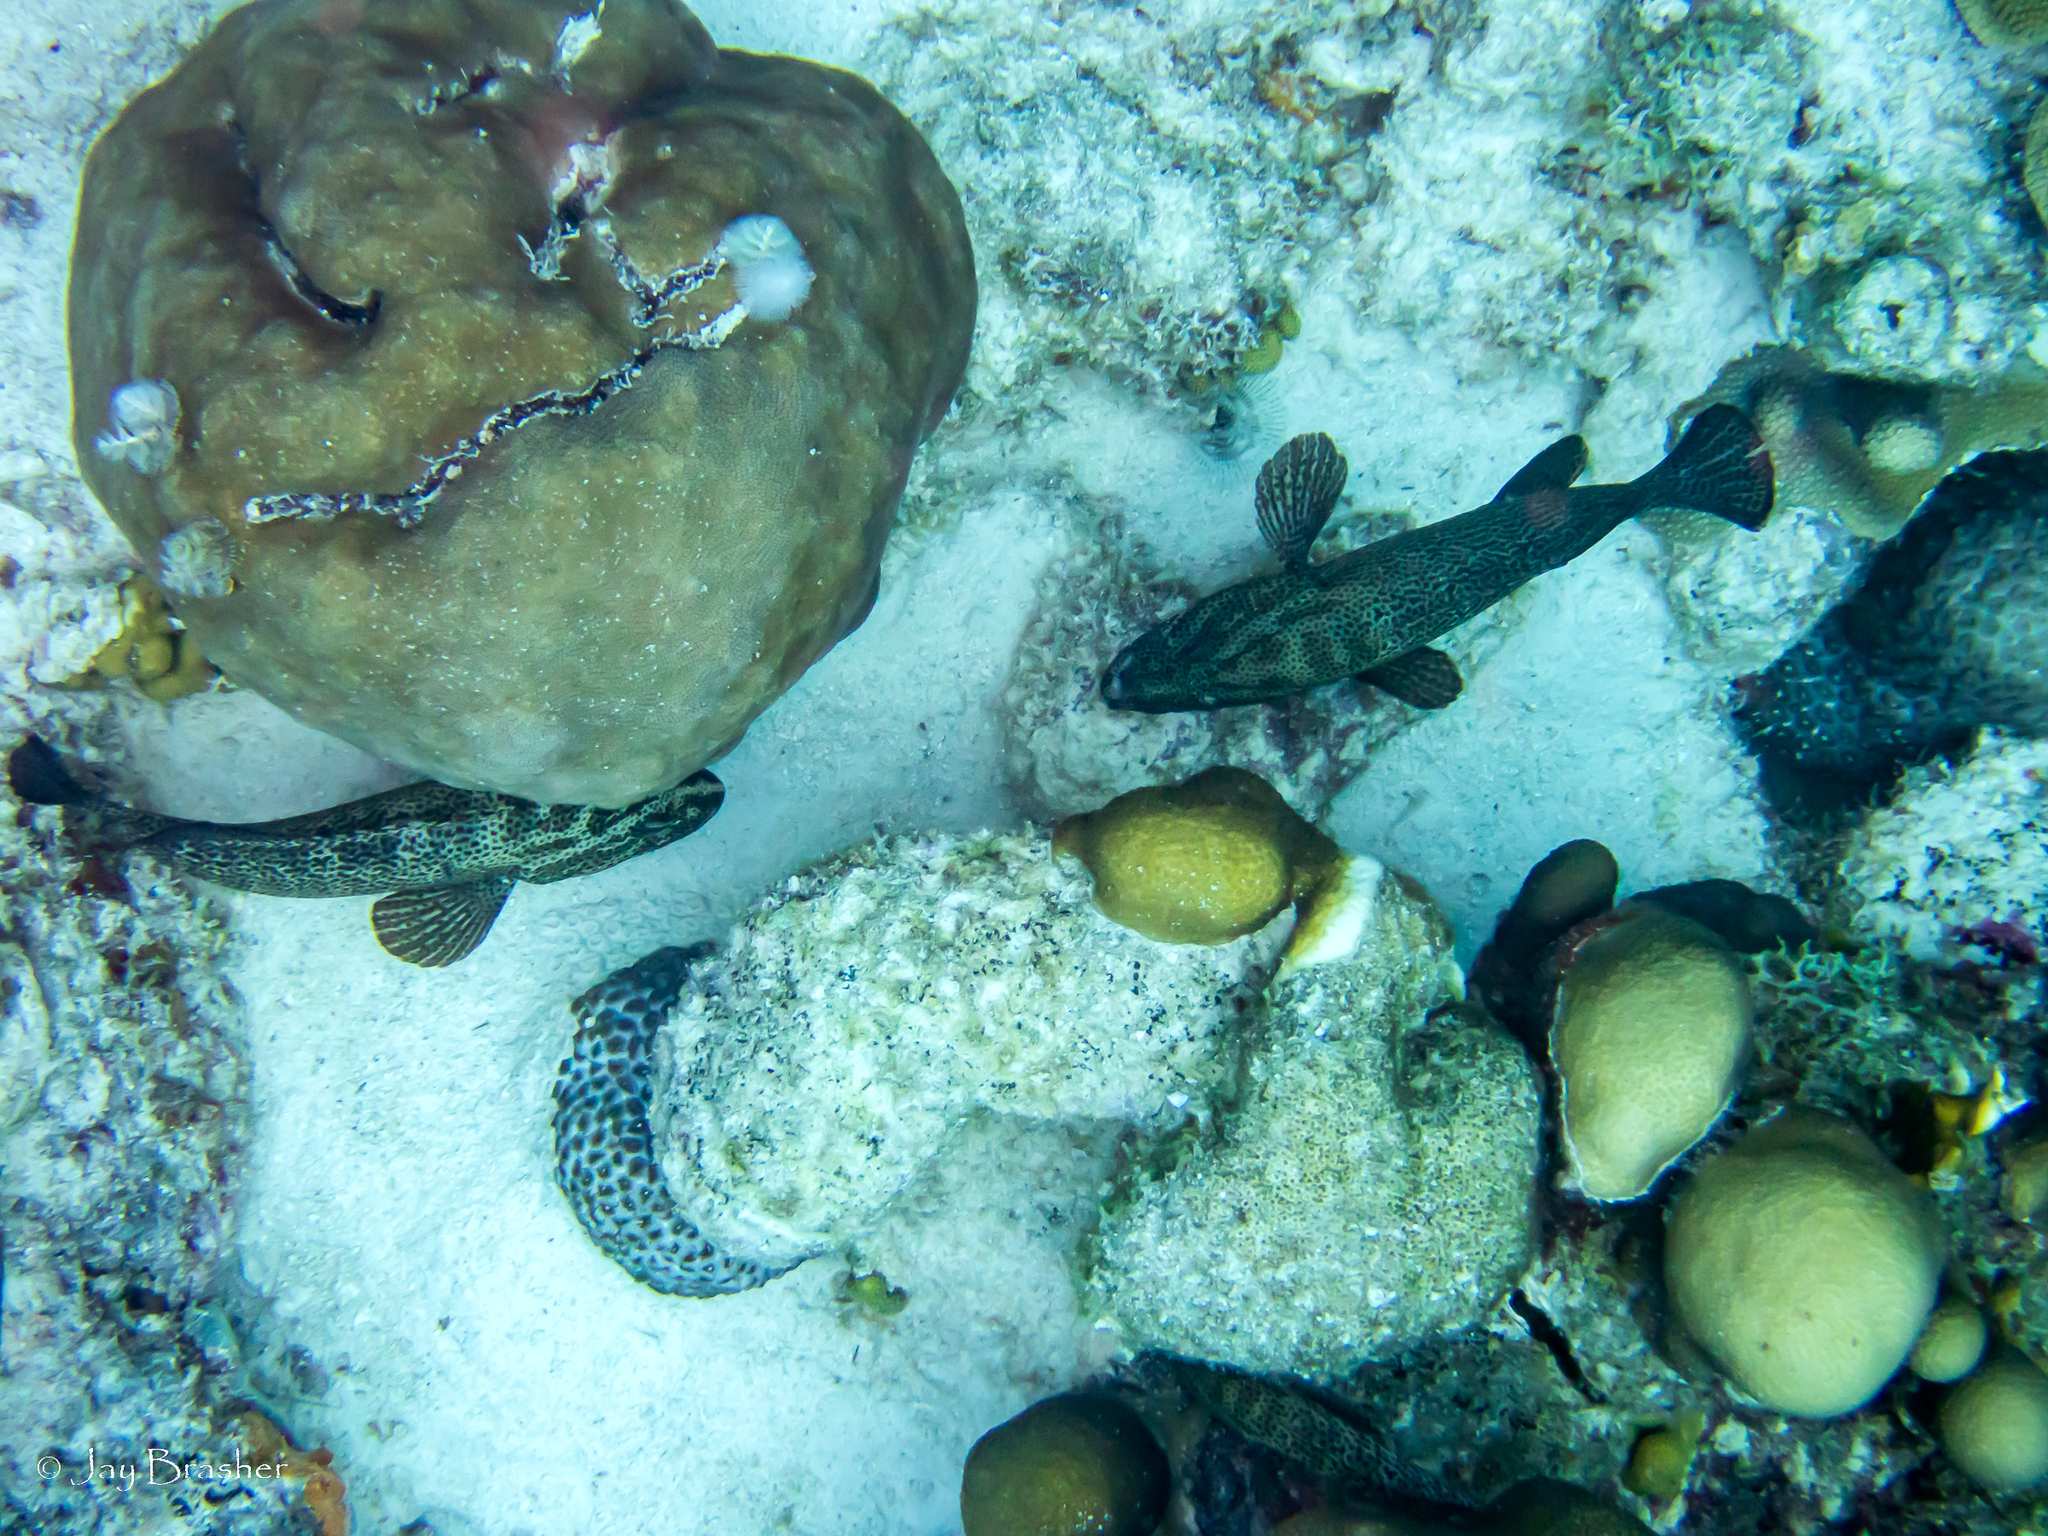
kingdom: Animalia
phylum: Cnidaria
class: Anthozoa
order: Scleractinia
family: Merulinidae
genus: Orbicella
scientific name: Orbicella annularis
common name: Boulder star coral
